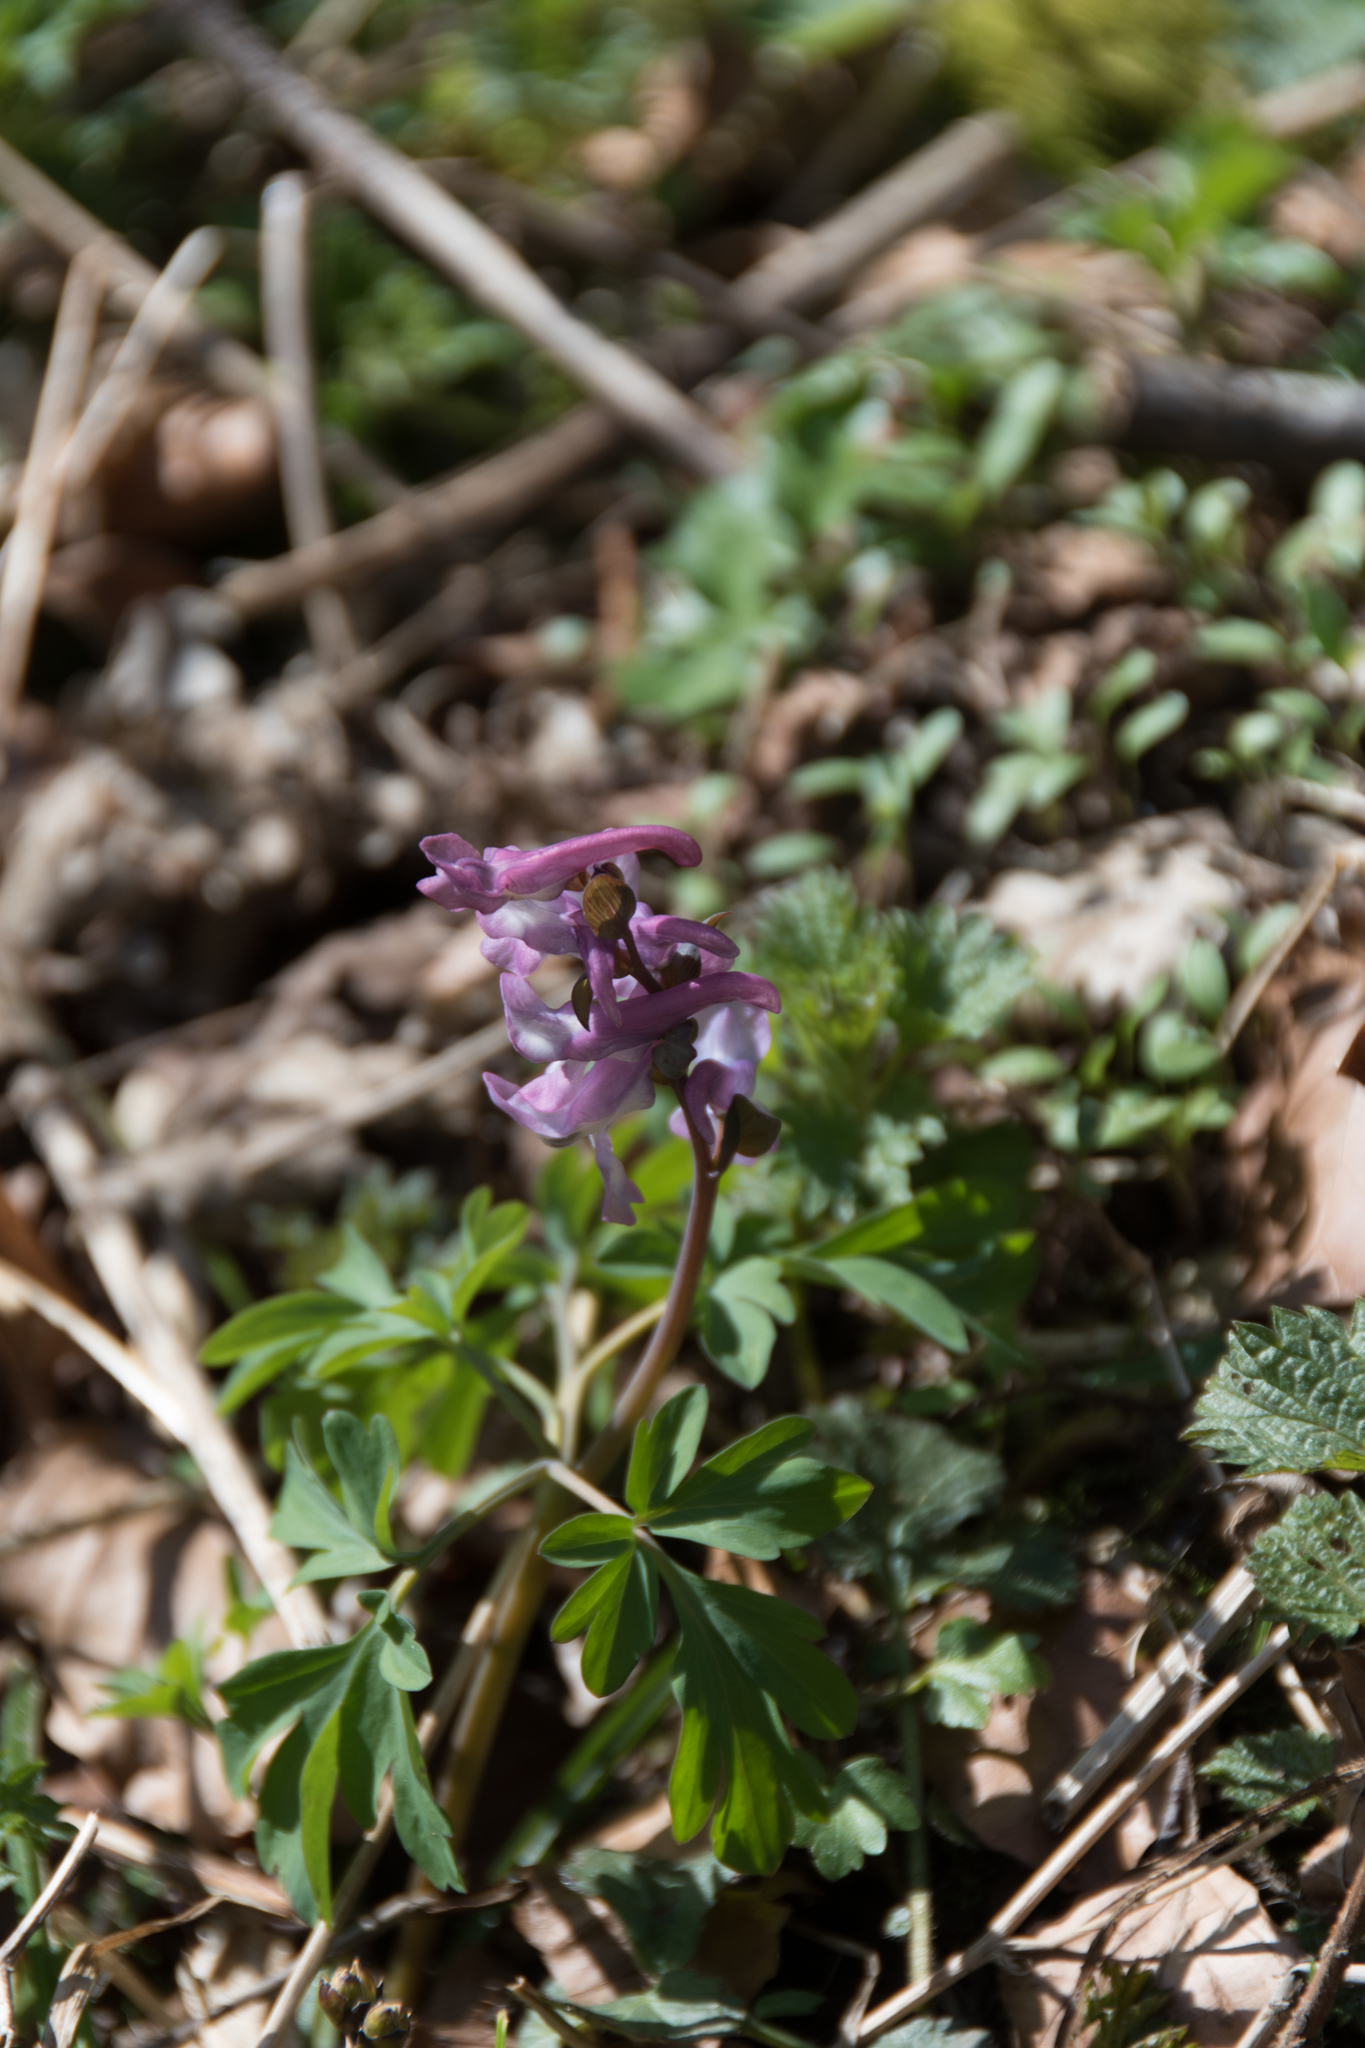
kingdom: Plantae
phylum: Tracheophyta
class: Magnoliopsida
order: Ranunculales
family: Papaveraceae
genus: Corydalis
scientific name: Corydalis cava
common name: Hollowroot
